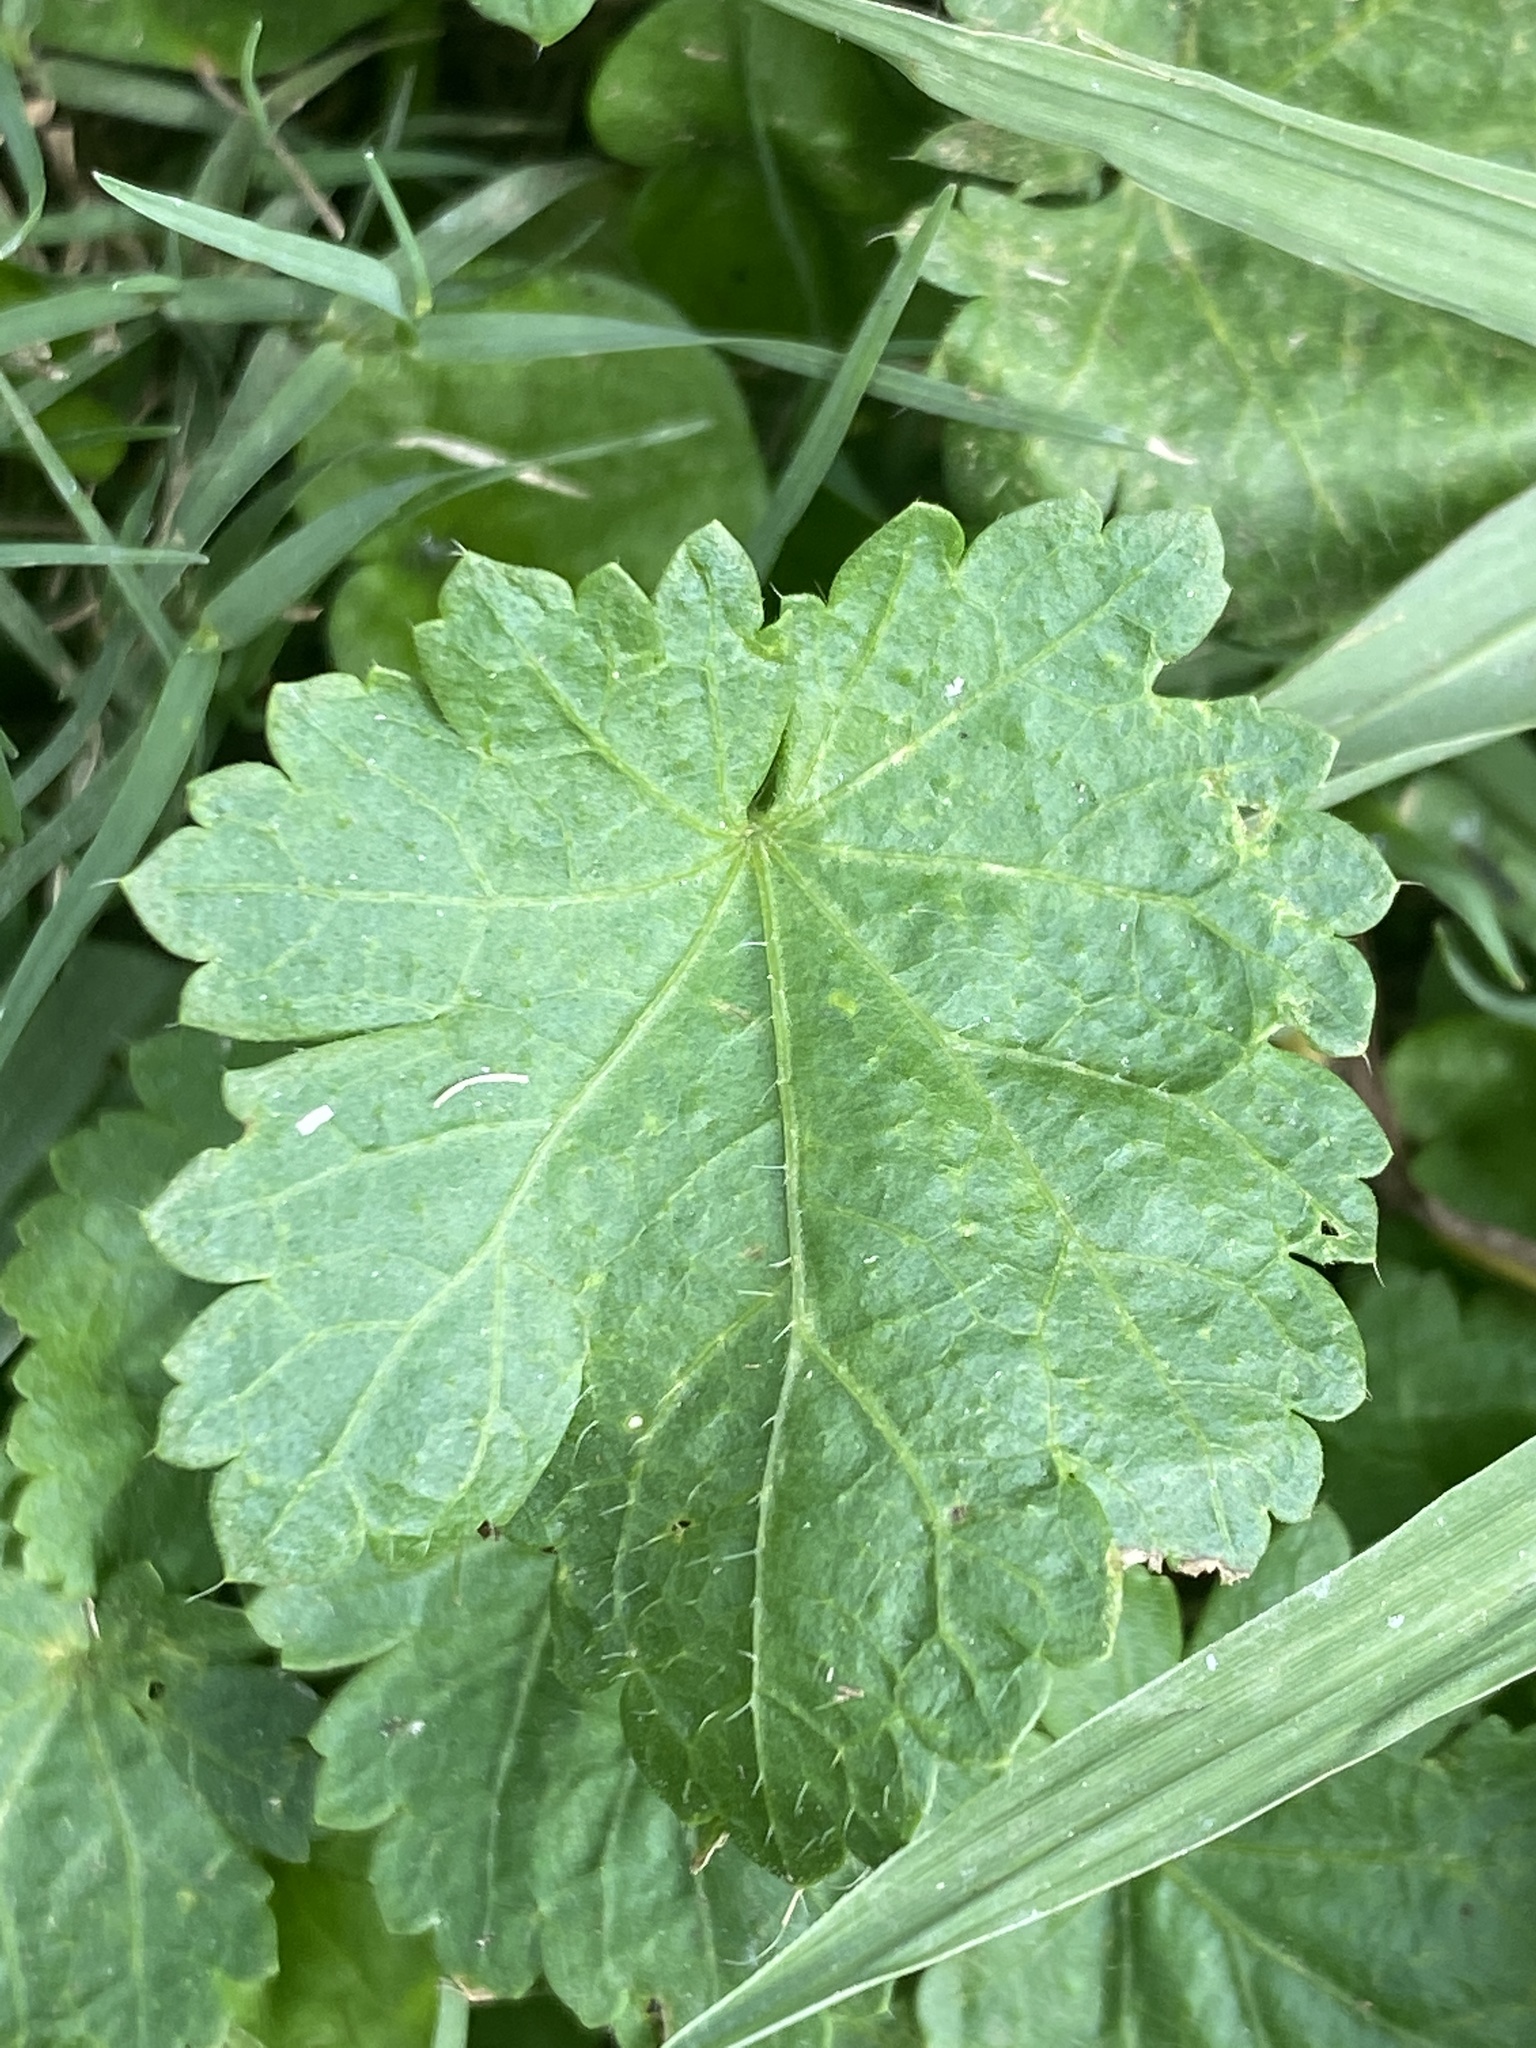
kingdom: Plantae
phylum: Tracheophyta
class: Magnoliopsida
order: Malvales
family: Malvaceae
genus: Modiola
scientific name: Modiola caroliniana
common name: Carolina bristlemallow
